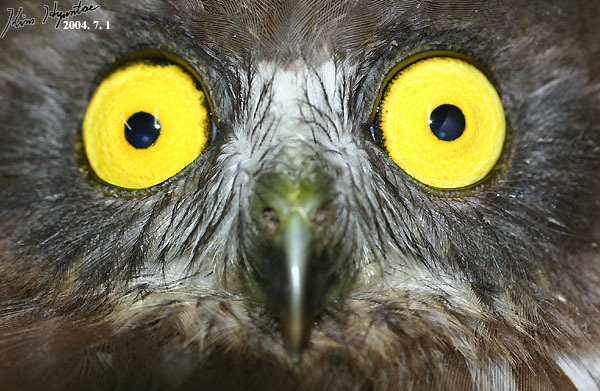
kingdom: Animalia
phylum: Chordata
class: Aves
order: Strigiformes
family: Strigidae
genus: Ninox
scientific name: Ninox japonica
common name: Northern boobook
